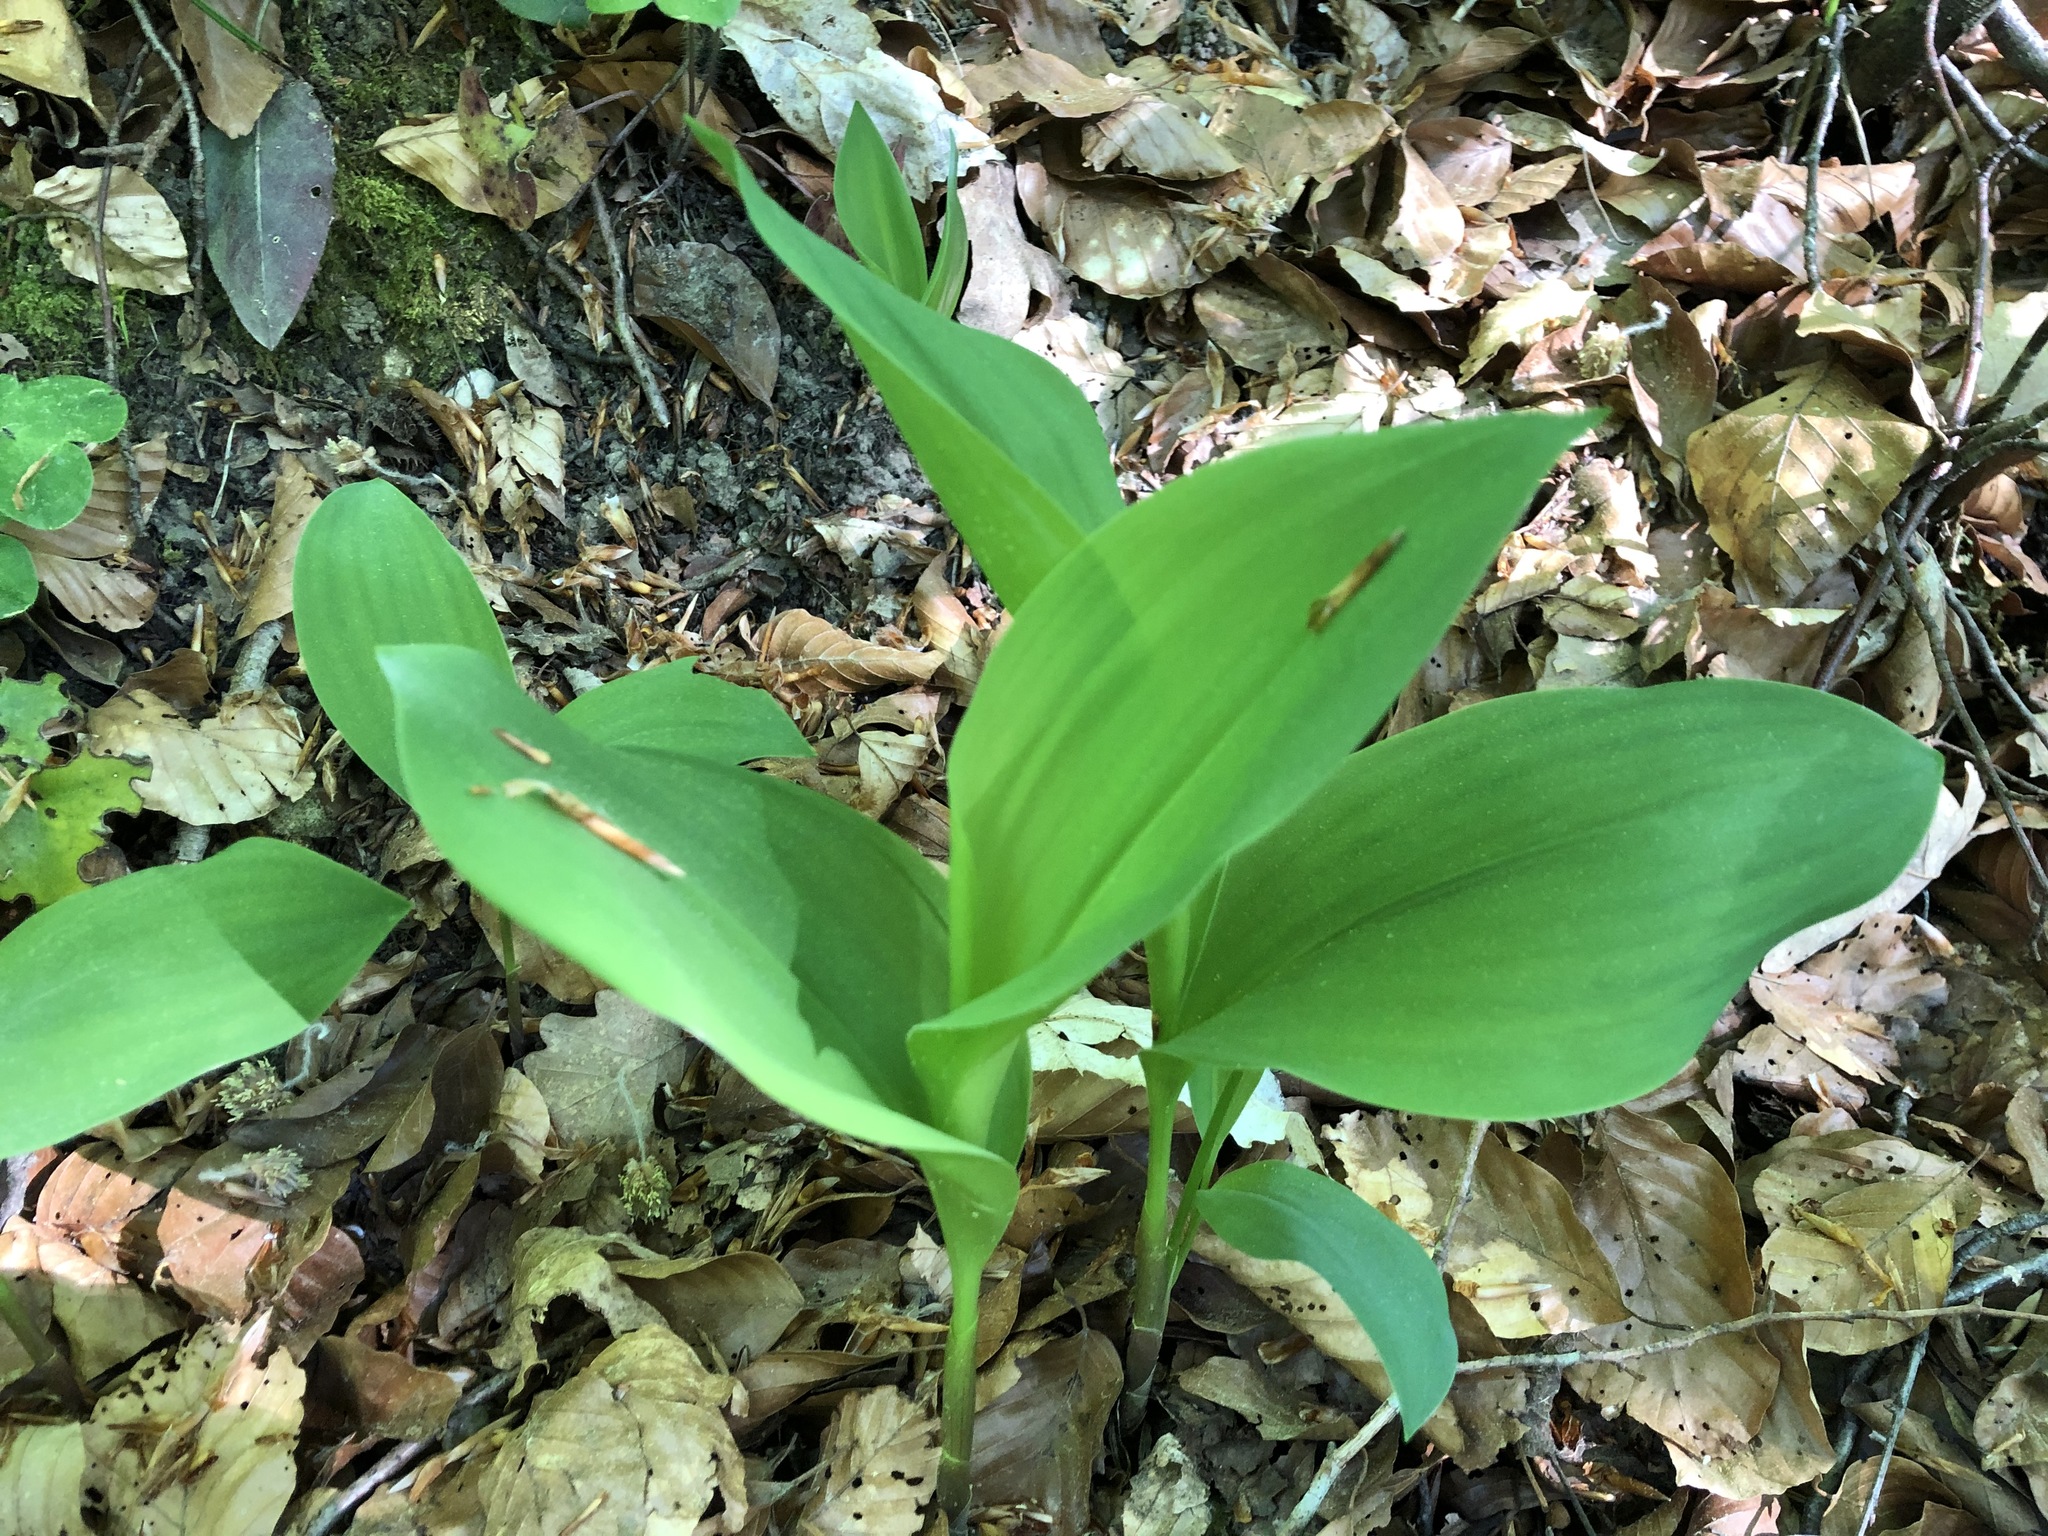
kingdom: Plantae
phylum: Tracheophyta
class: Liliopsida
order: Asparagales
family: Asparagaceae
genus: Convallaria
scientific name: Convallaria majalis
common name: Lily-of-the-valley
